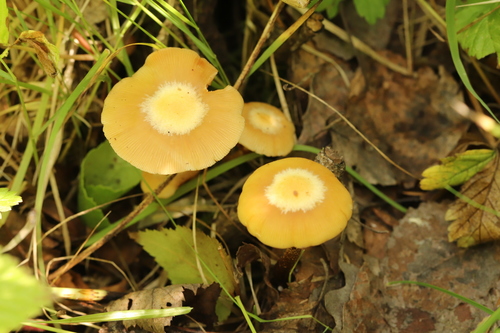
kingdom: Fungi
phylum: Basidiomycota
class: Agaricomycetes
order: Agaricales
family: Strophariaceae
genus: Kuehneromyces
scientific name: Kuehneromyces mutabilis
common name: Sheathed woodtuft
